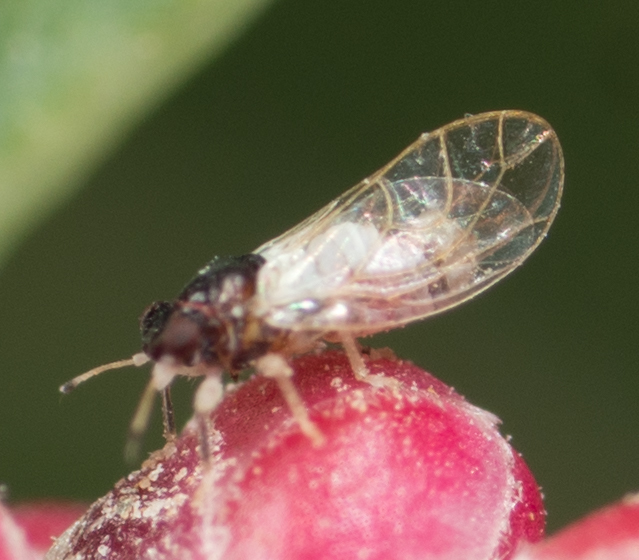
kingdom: Animalia
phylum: Arthropoda
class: Insecta
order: Hemiptera
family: Calophyidae
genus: Calophya
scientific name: Calophya californica
